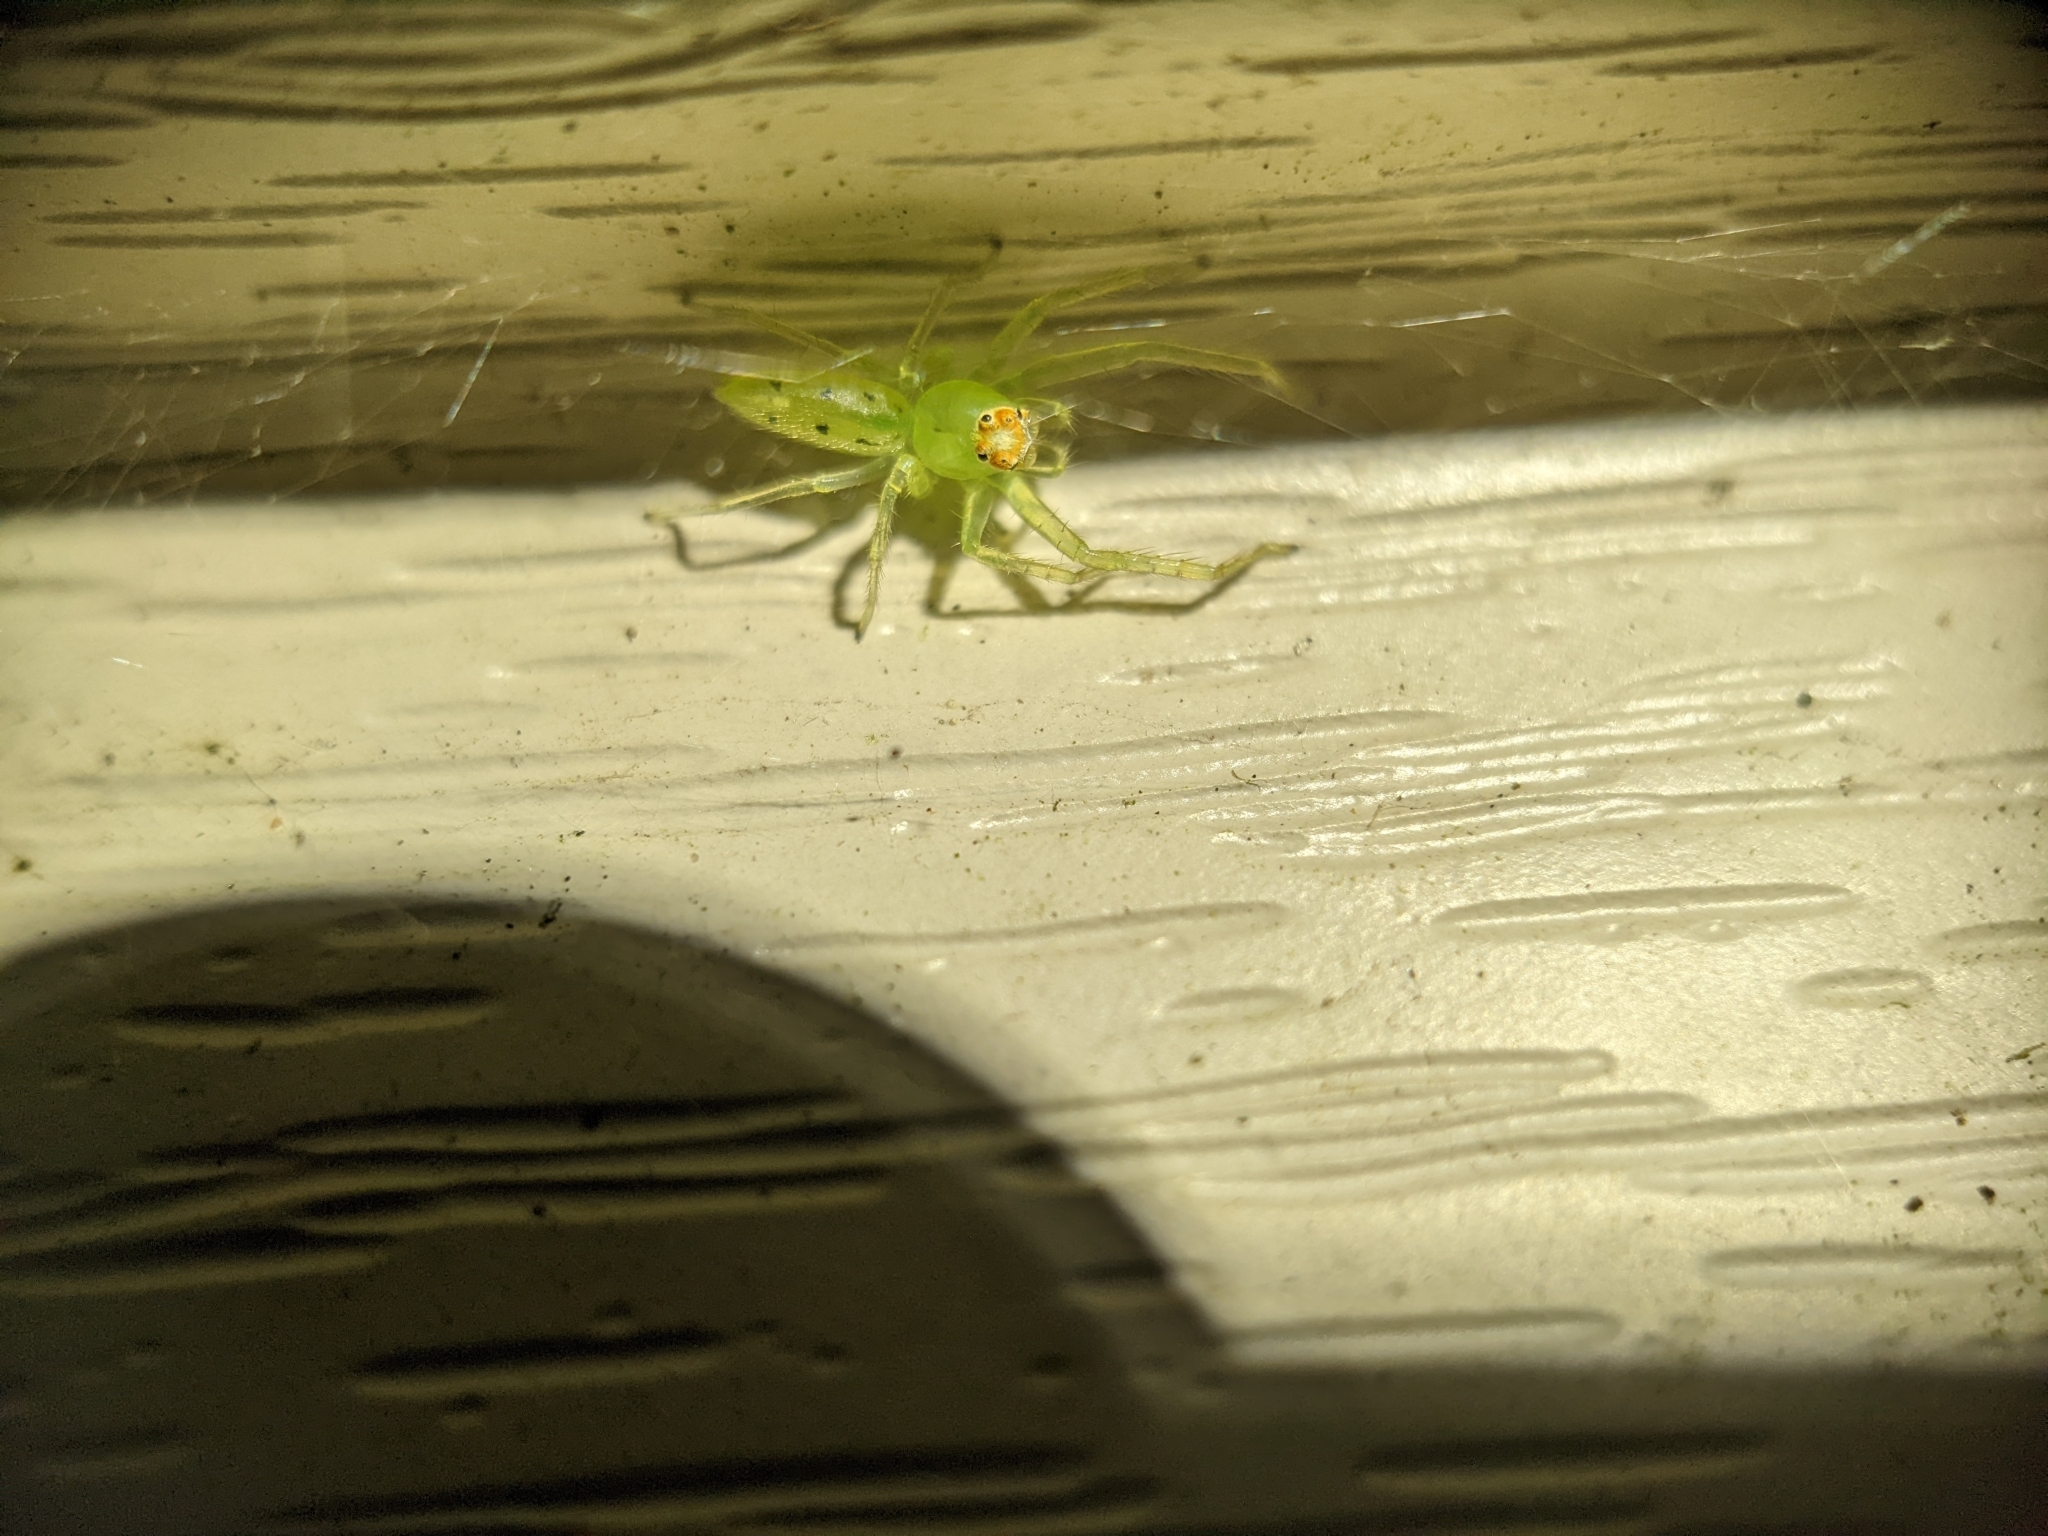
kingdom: Animalia
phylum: Arthropoda
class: Arachnida
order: Araneae
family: Salticidae
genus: Lyssomanes
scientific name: Lyssomanes viridis
